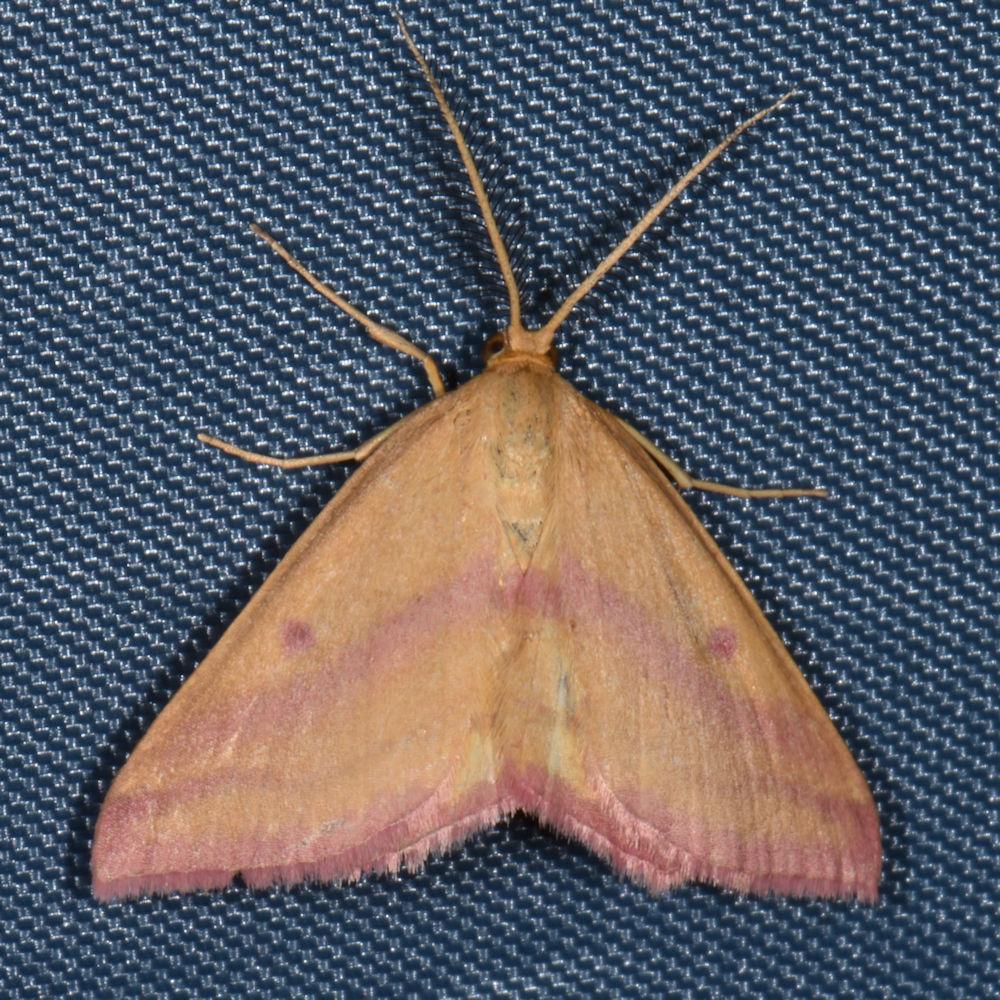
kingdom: Animalia
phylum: Arthropoda
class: Insecta
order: Lepidoptera
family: Geometridae
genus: Haematopis
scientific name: Haematopis grataria
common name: Chickweed geometer
